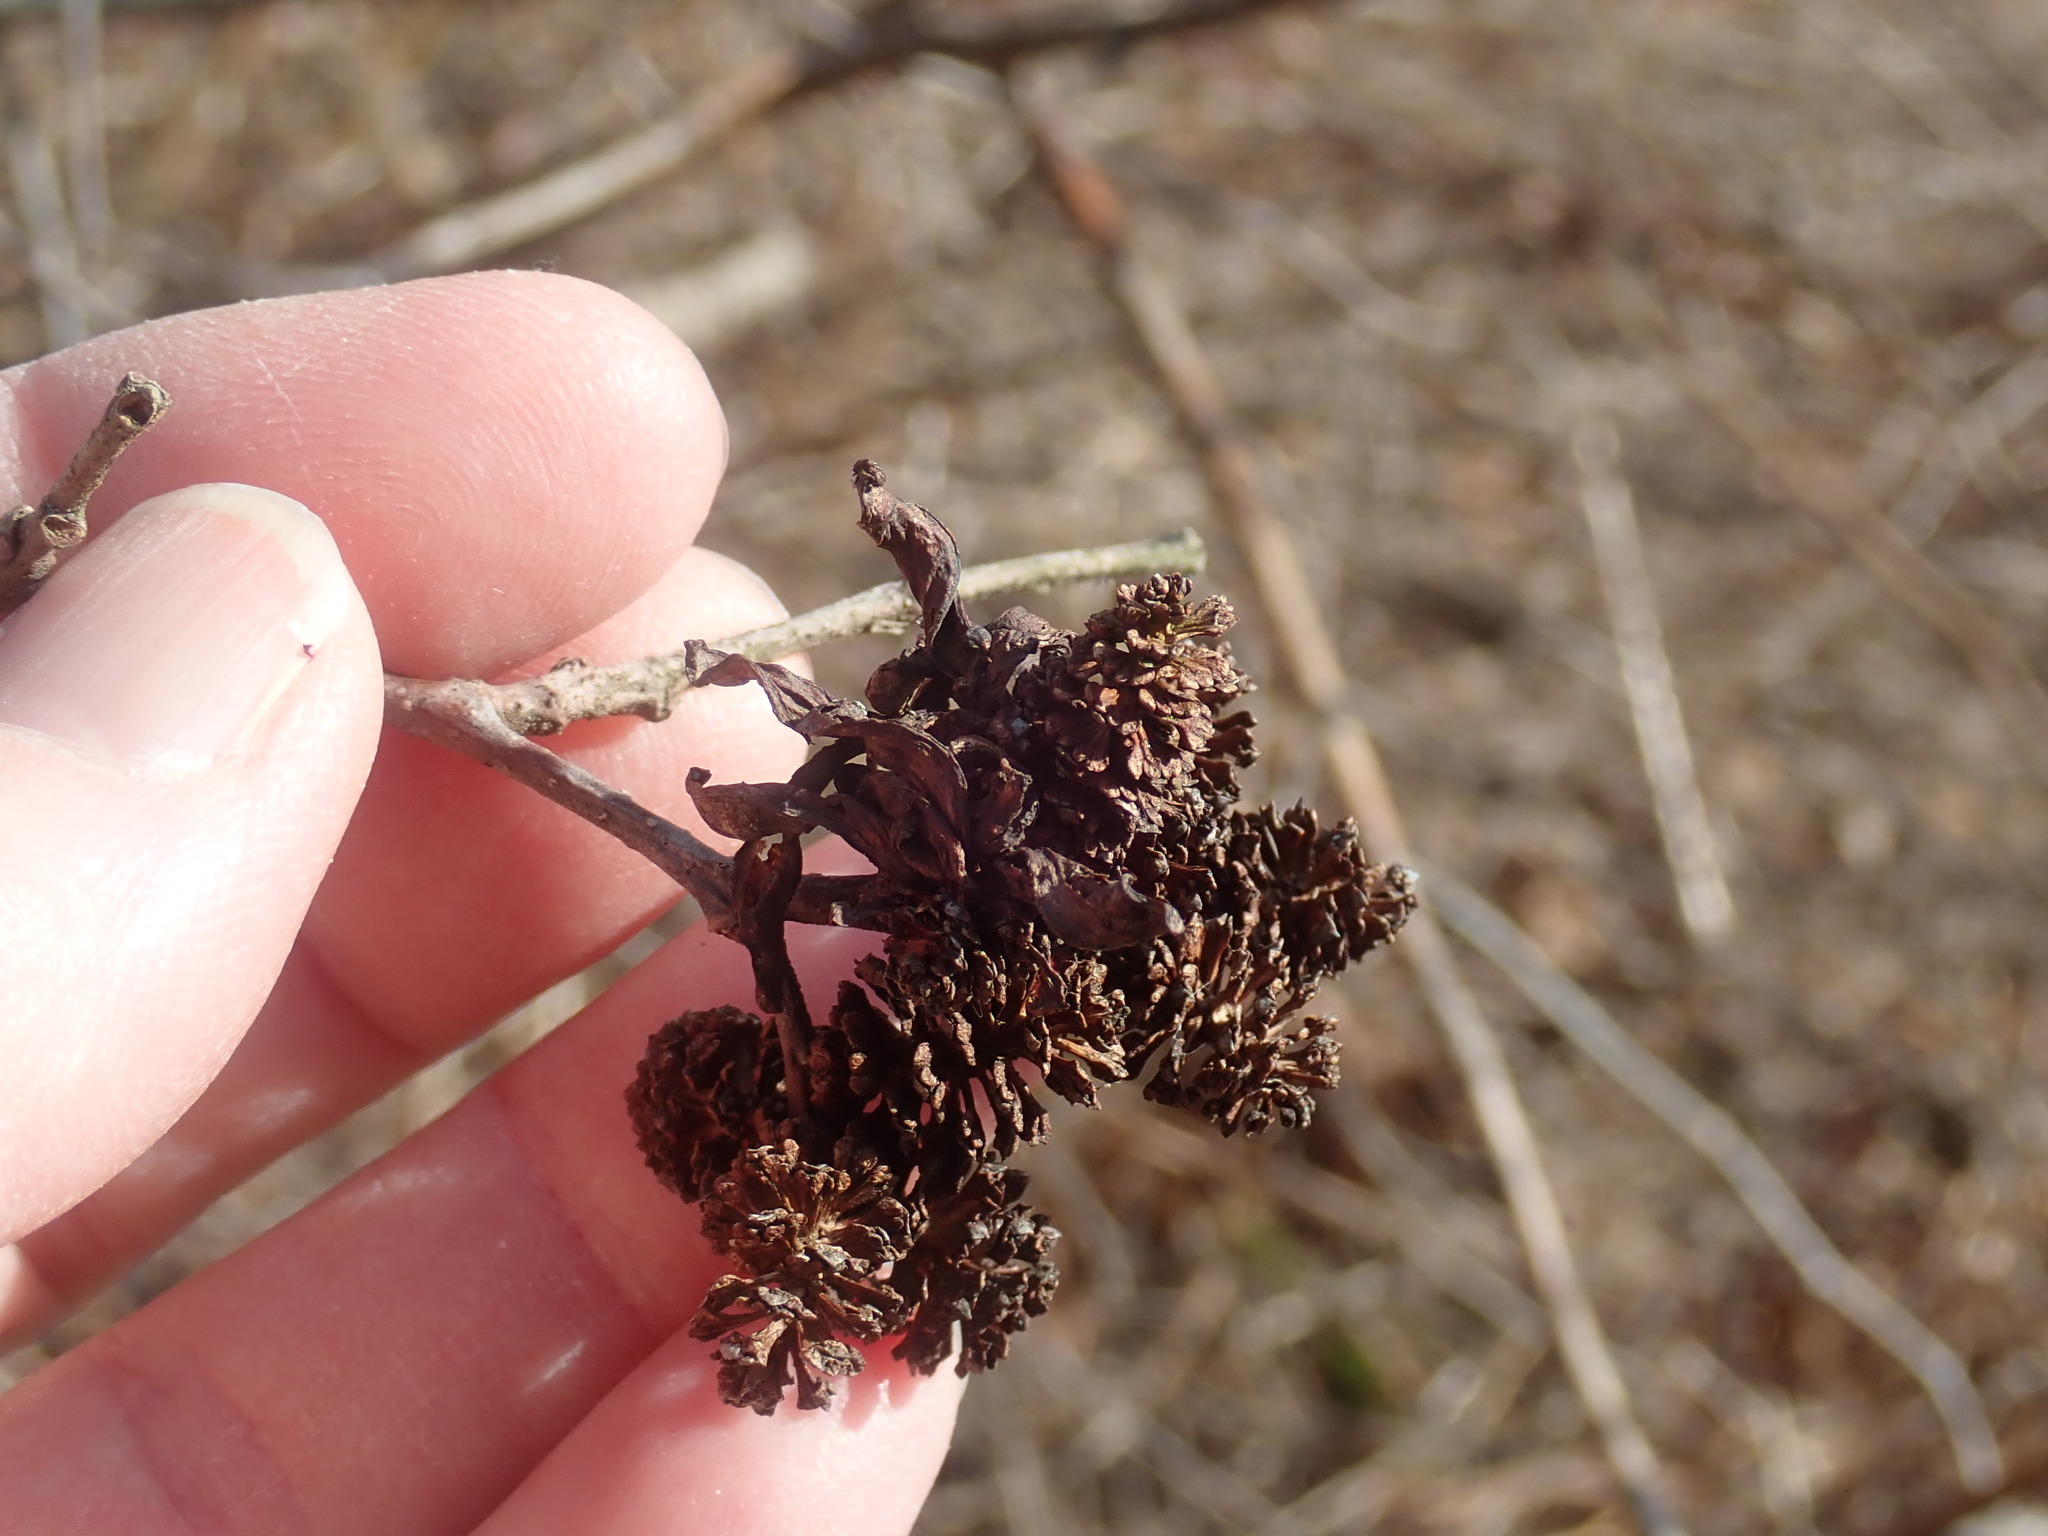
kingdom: Fungi
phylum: Ascomycota
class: Taphrinomycetes
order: Taphrinales
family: Taphrinaceae
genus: Taphrina
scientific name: Taphrina robinsoniana
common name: Eastern american alder tongue gall fungus
